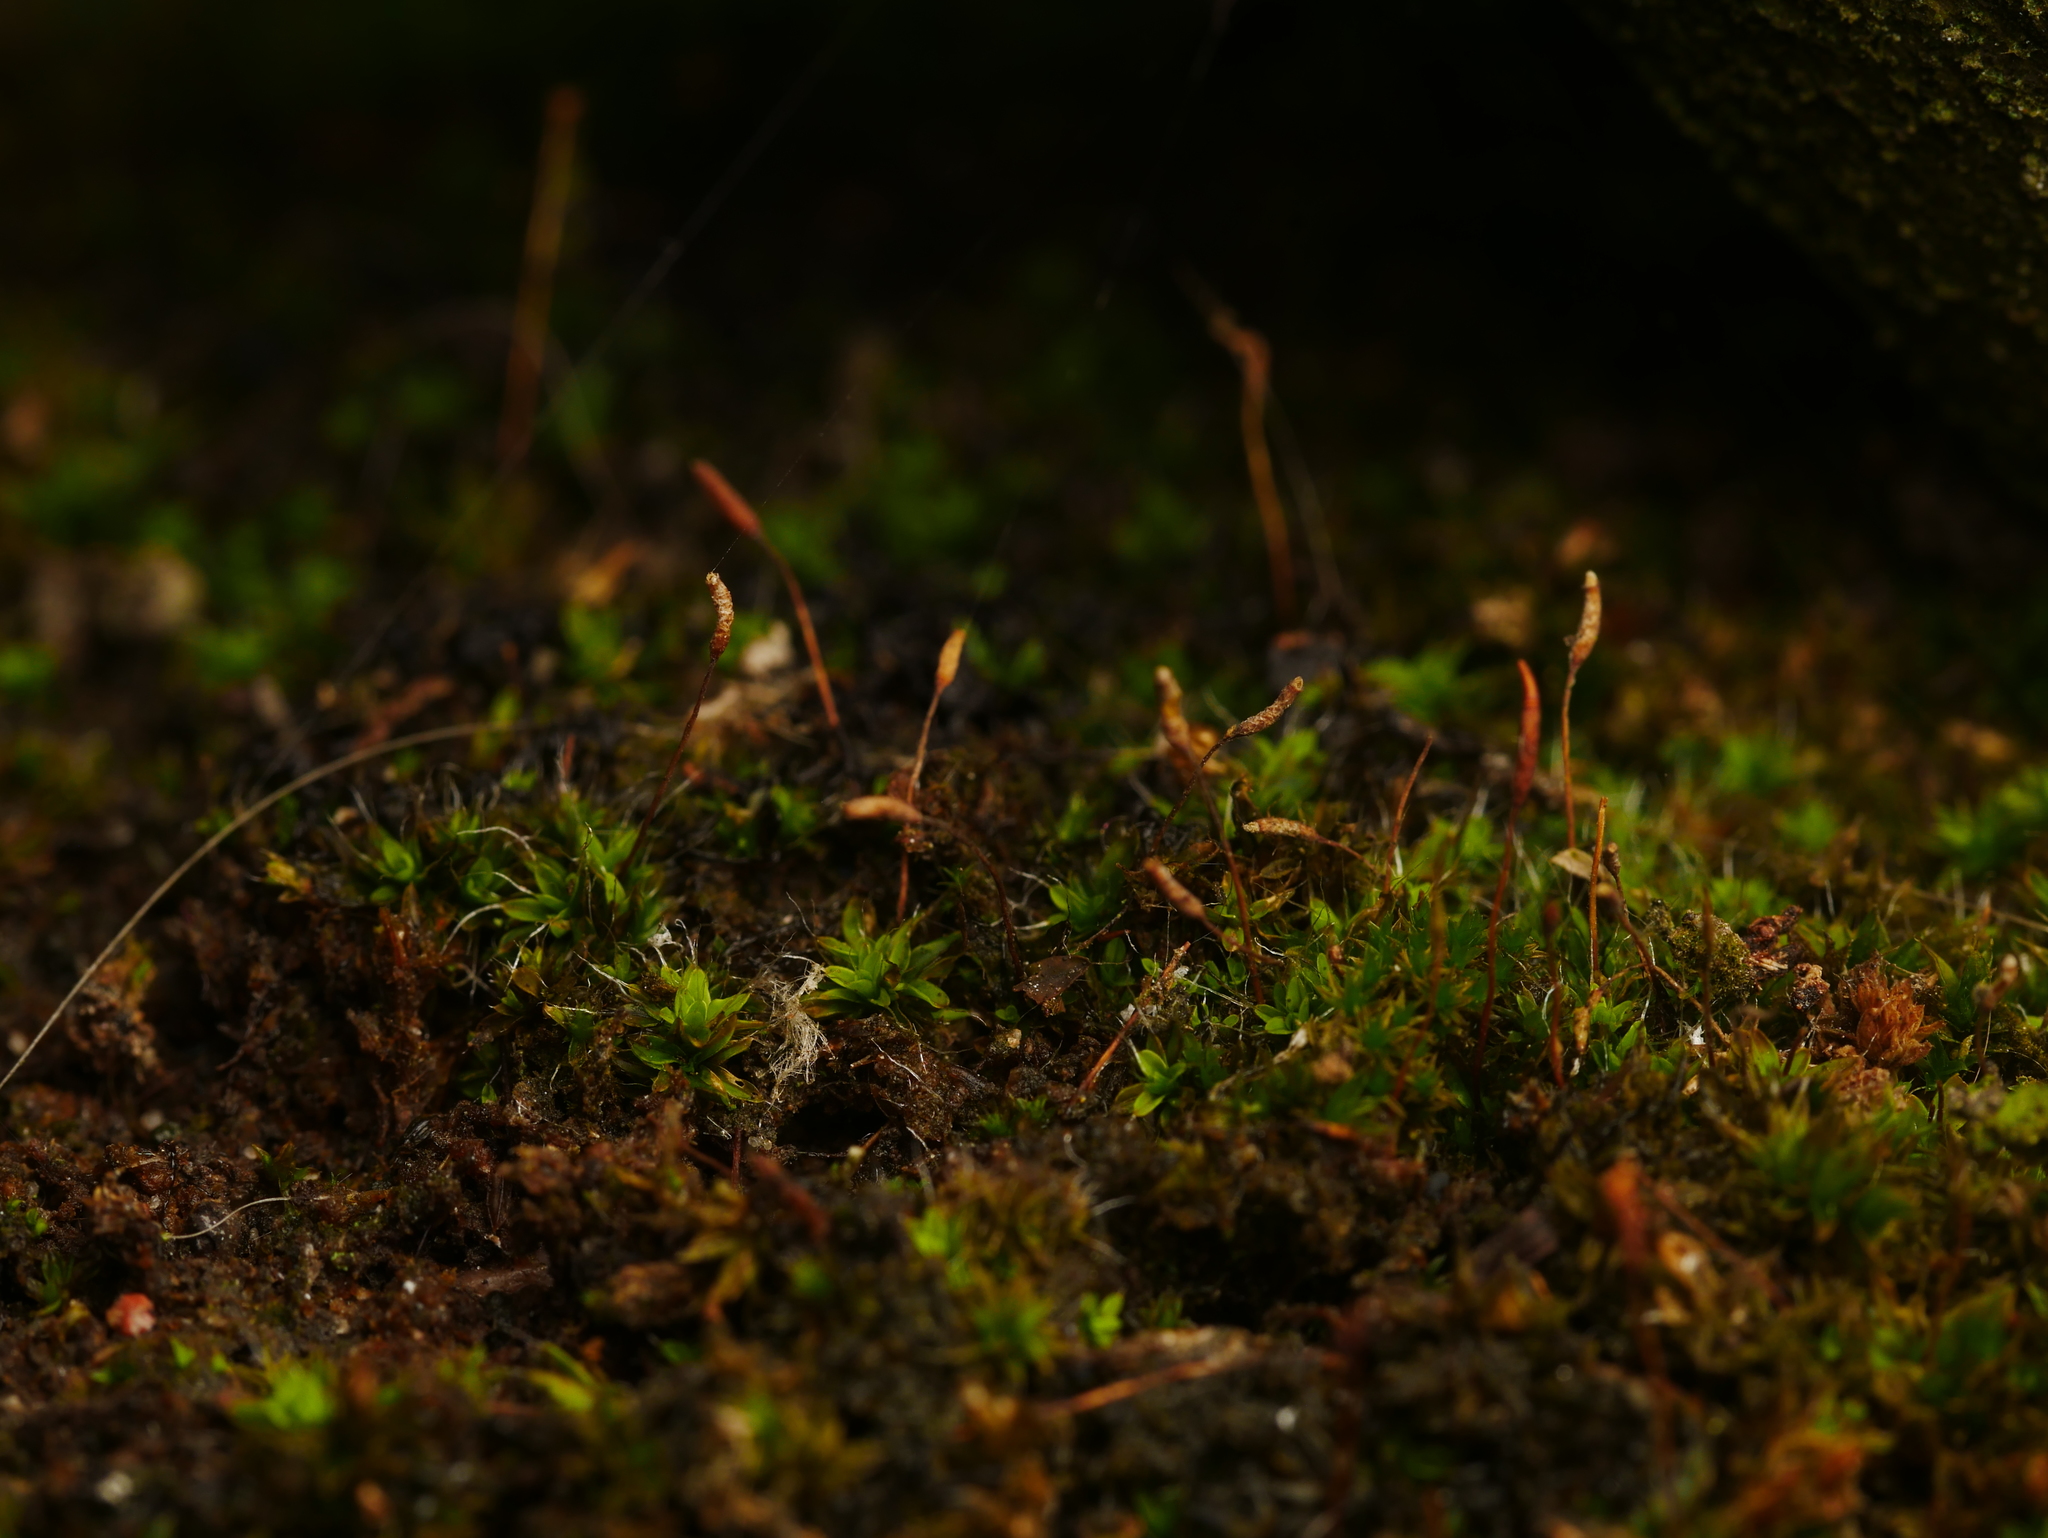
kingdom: Plantae
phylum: Bryophyta
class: Bryopsida
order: Pottiales
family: Pottiaceae
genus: Tortula
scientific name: Tortula muralis
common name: Wall screw-moss
